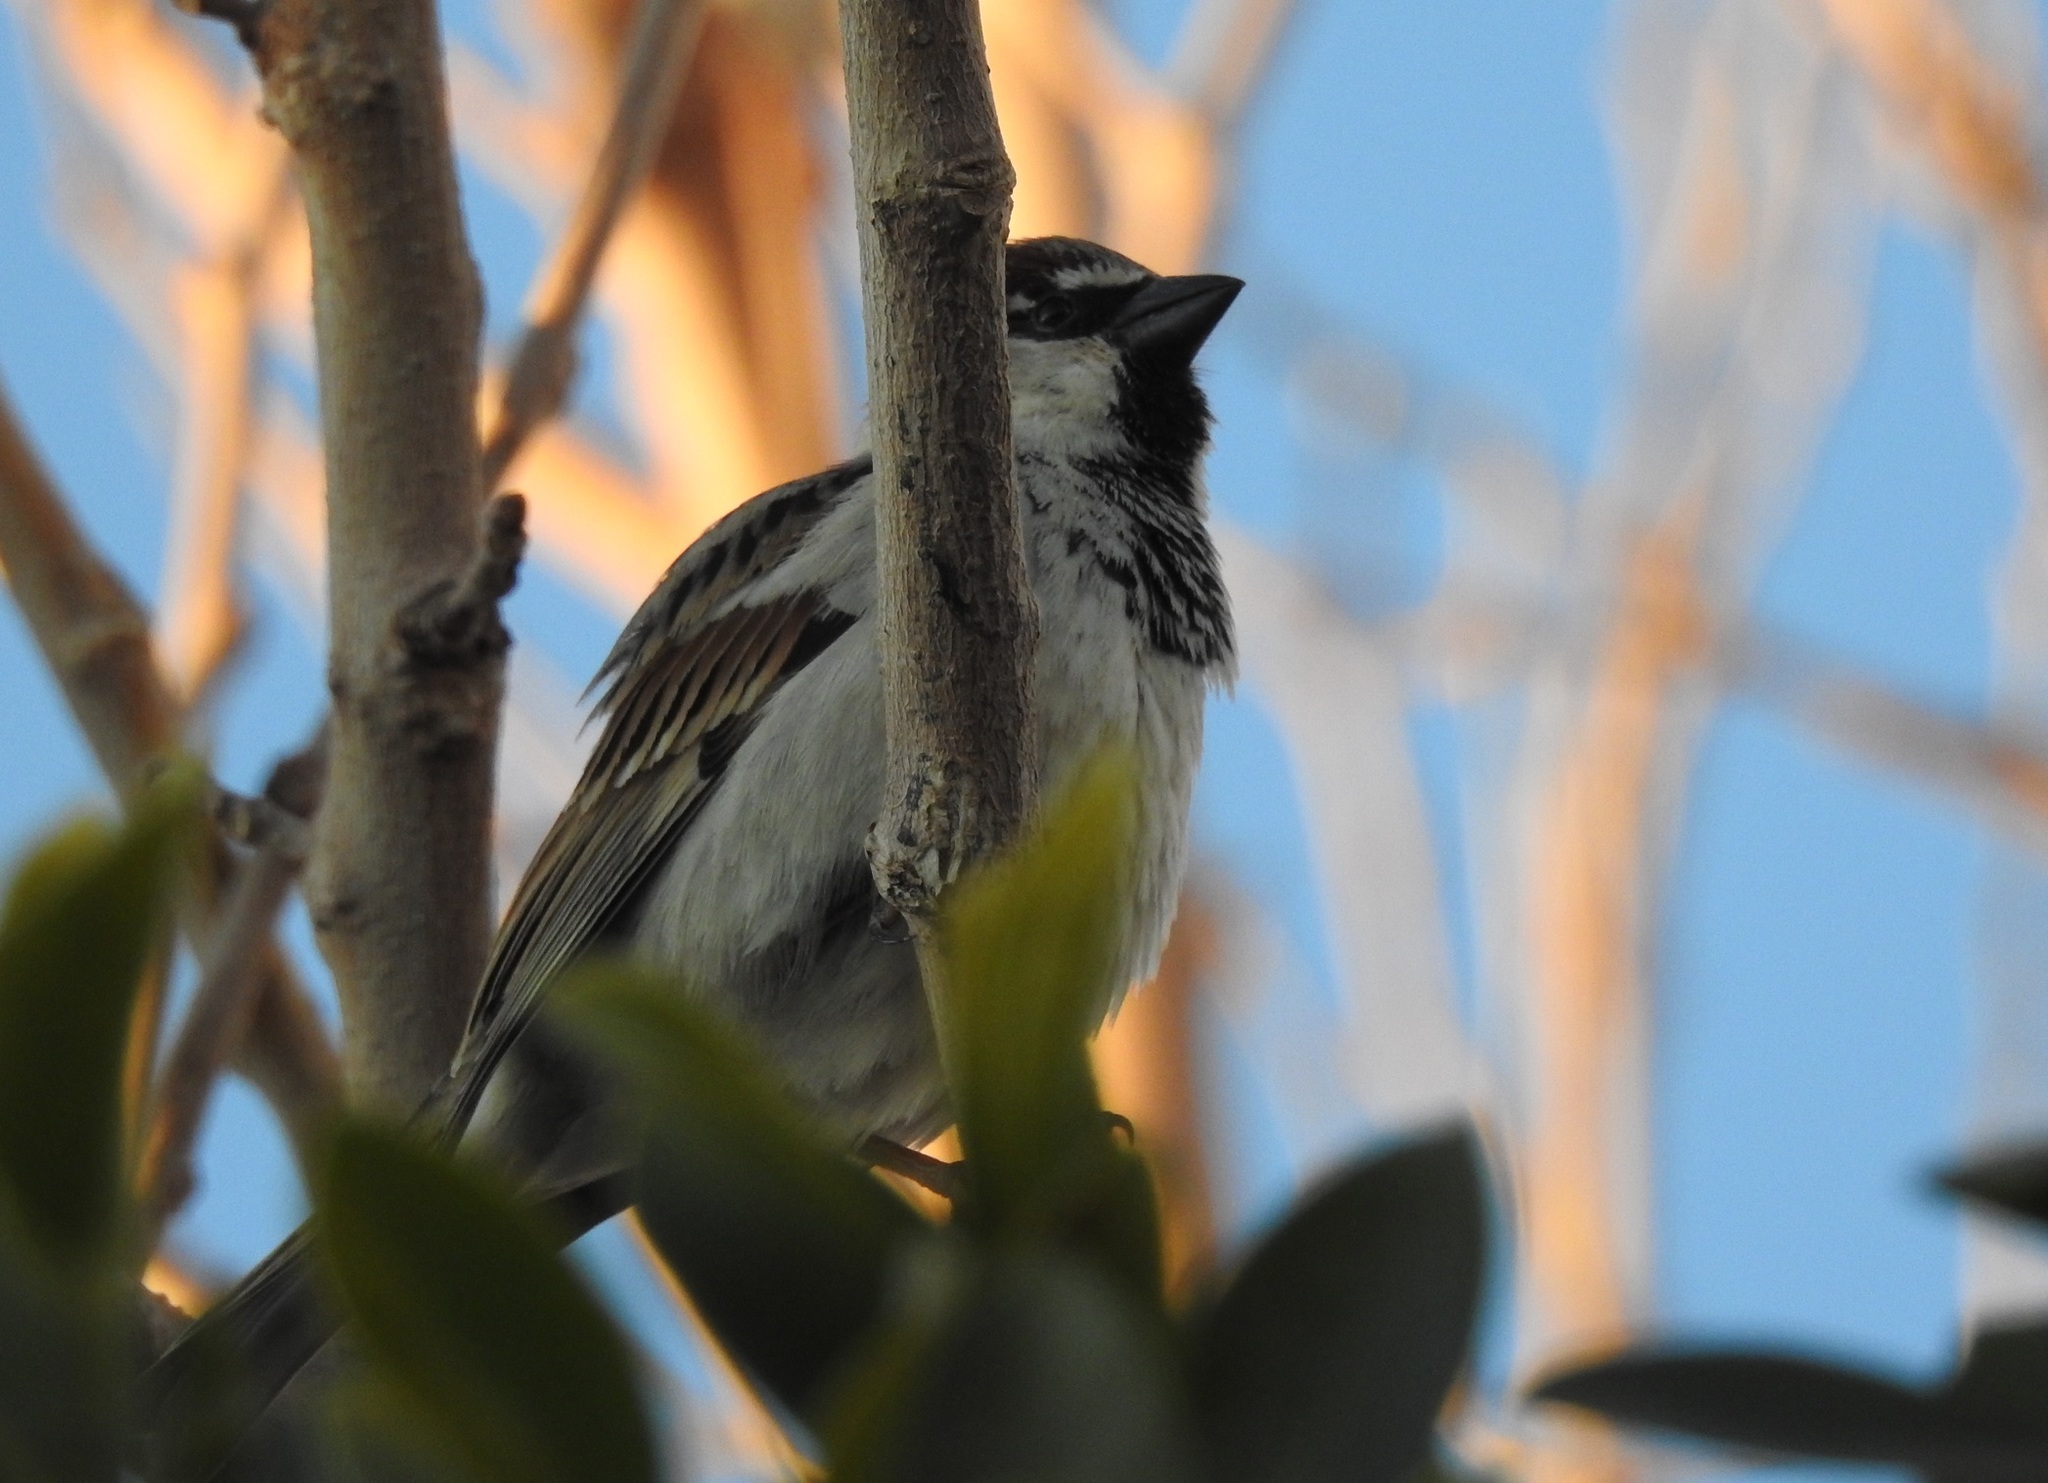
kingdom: Animalia
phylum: Chordata
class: Aves
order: Passeriformes
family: Passeridae
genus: Passer
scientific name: Passer domesticus
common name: House sparrow
